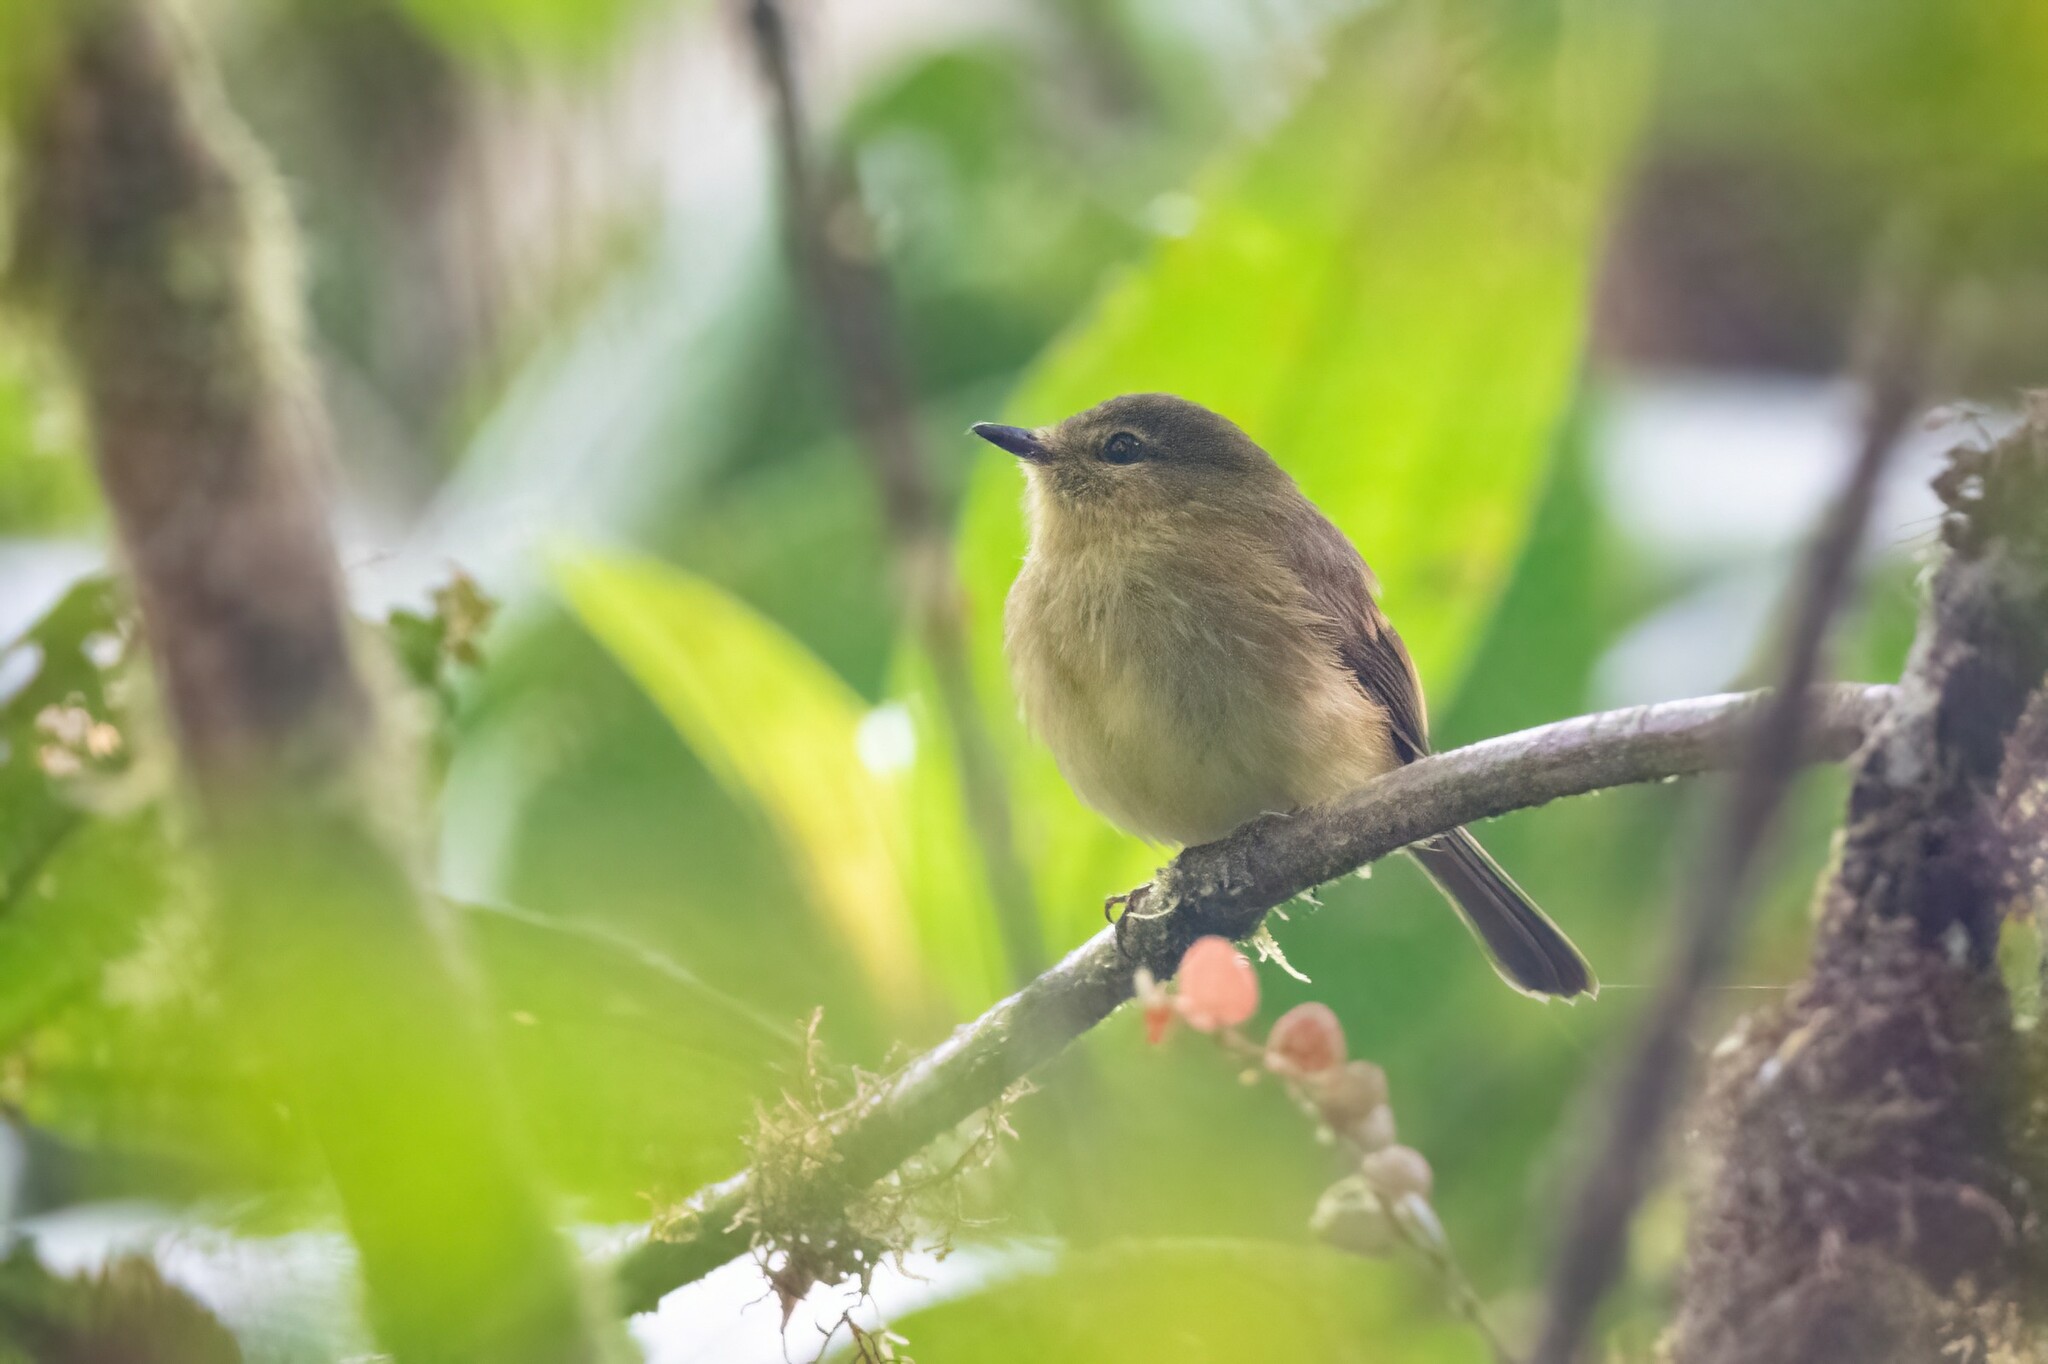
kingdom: Animalia
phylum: Chordata
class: Aves
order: Passeriformes
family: Tyrannidae
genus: Myiophobus
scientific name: Myiophobus flavicans
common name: Flavescent flycatcher
